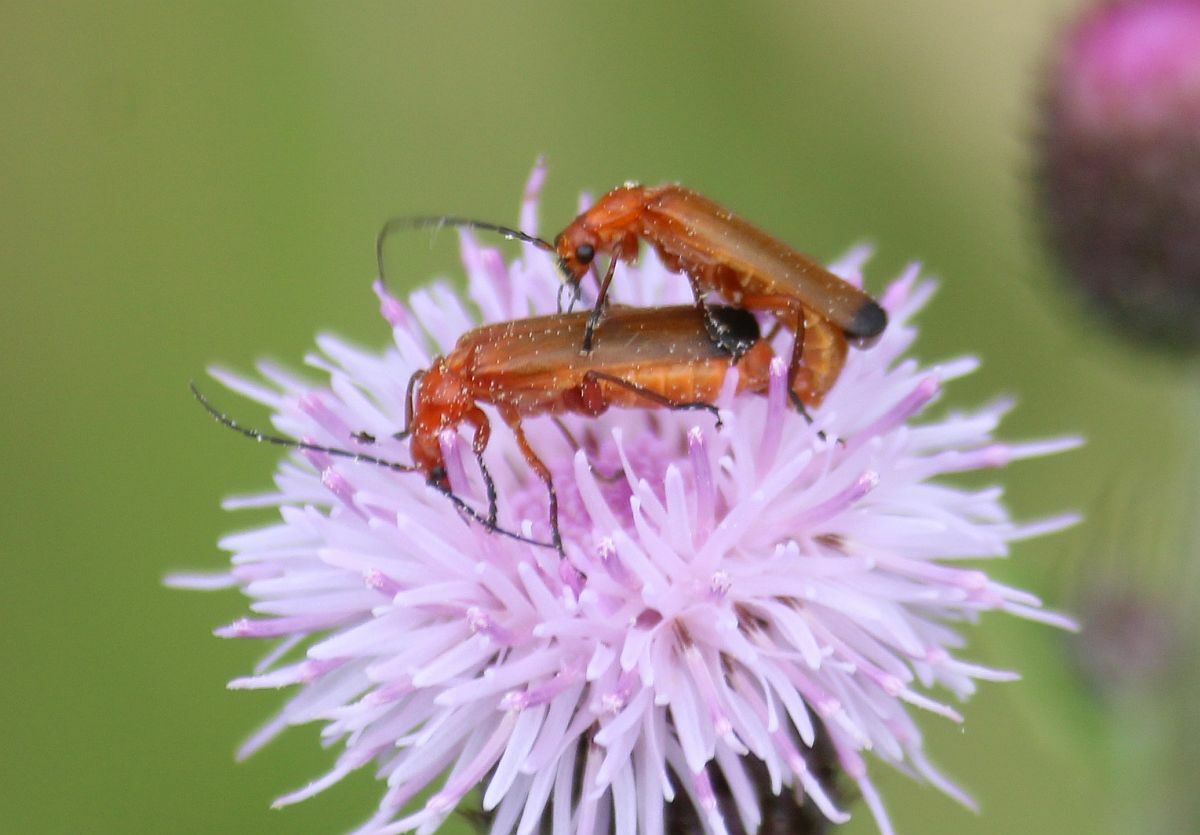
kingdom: Animalia
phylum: Arthropoda
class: Insecta
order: Coleoptera
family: Cantharidae
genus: Rhagonycha
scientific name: Rhagonycha fulva
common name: Common red soldier beetle
